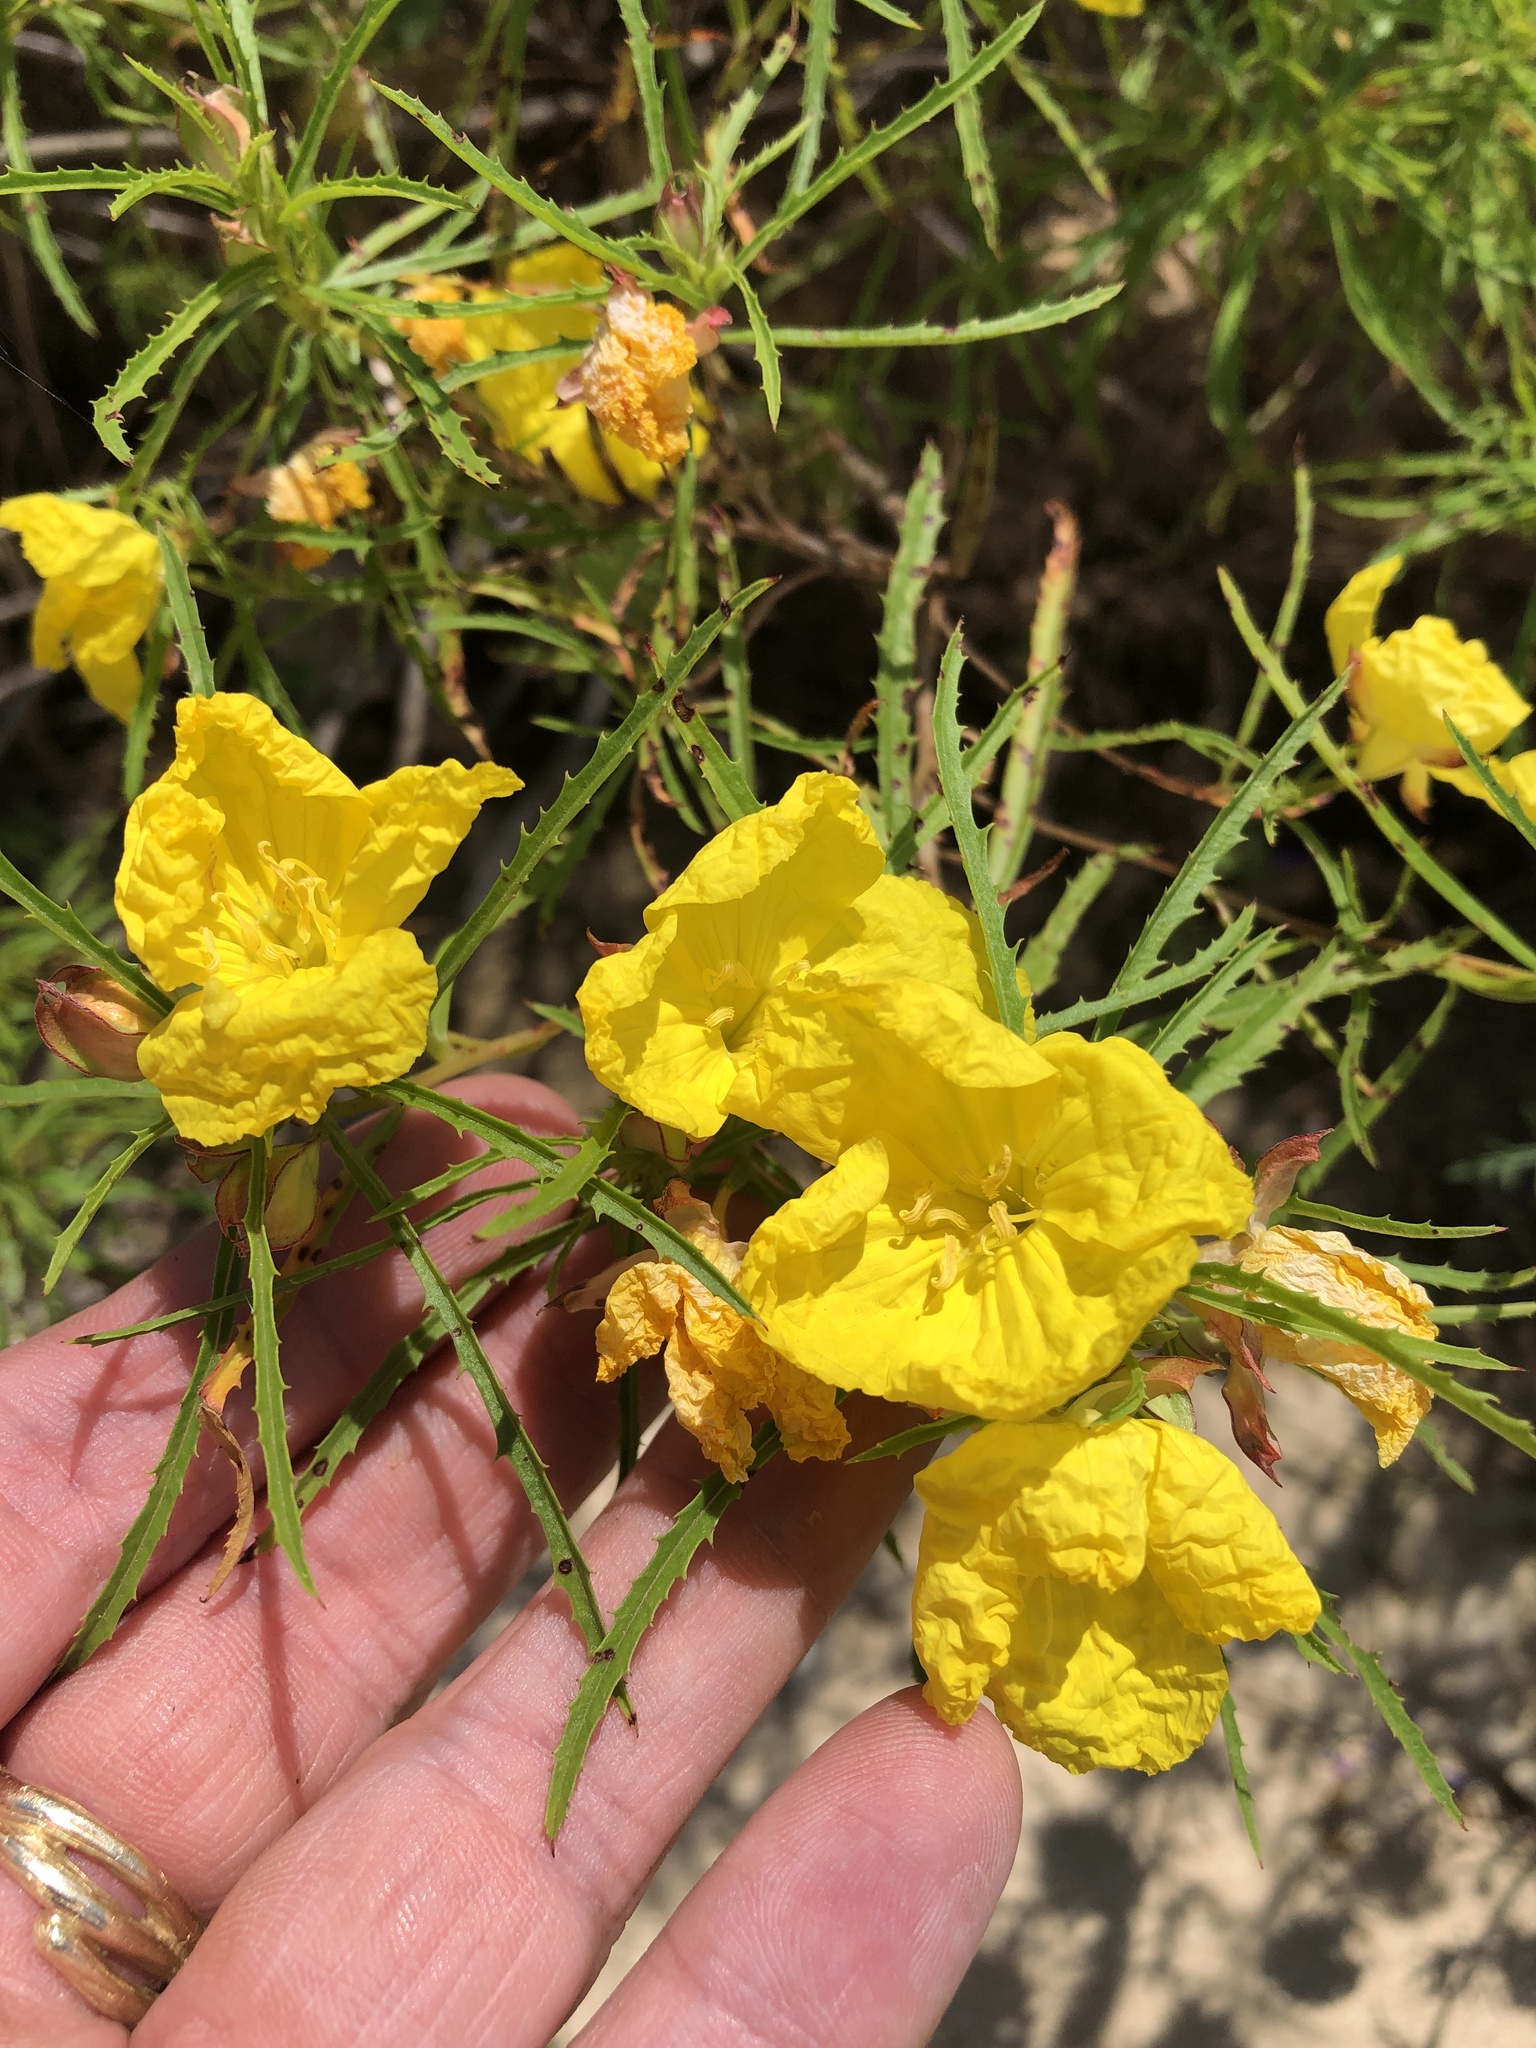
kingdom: Plantae
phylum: Tracheophyta
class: Magnoliopsida
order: Myrtales
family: Onagraceae
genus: Oenothera
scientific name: Oenothera
